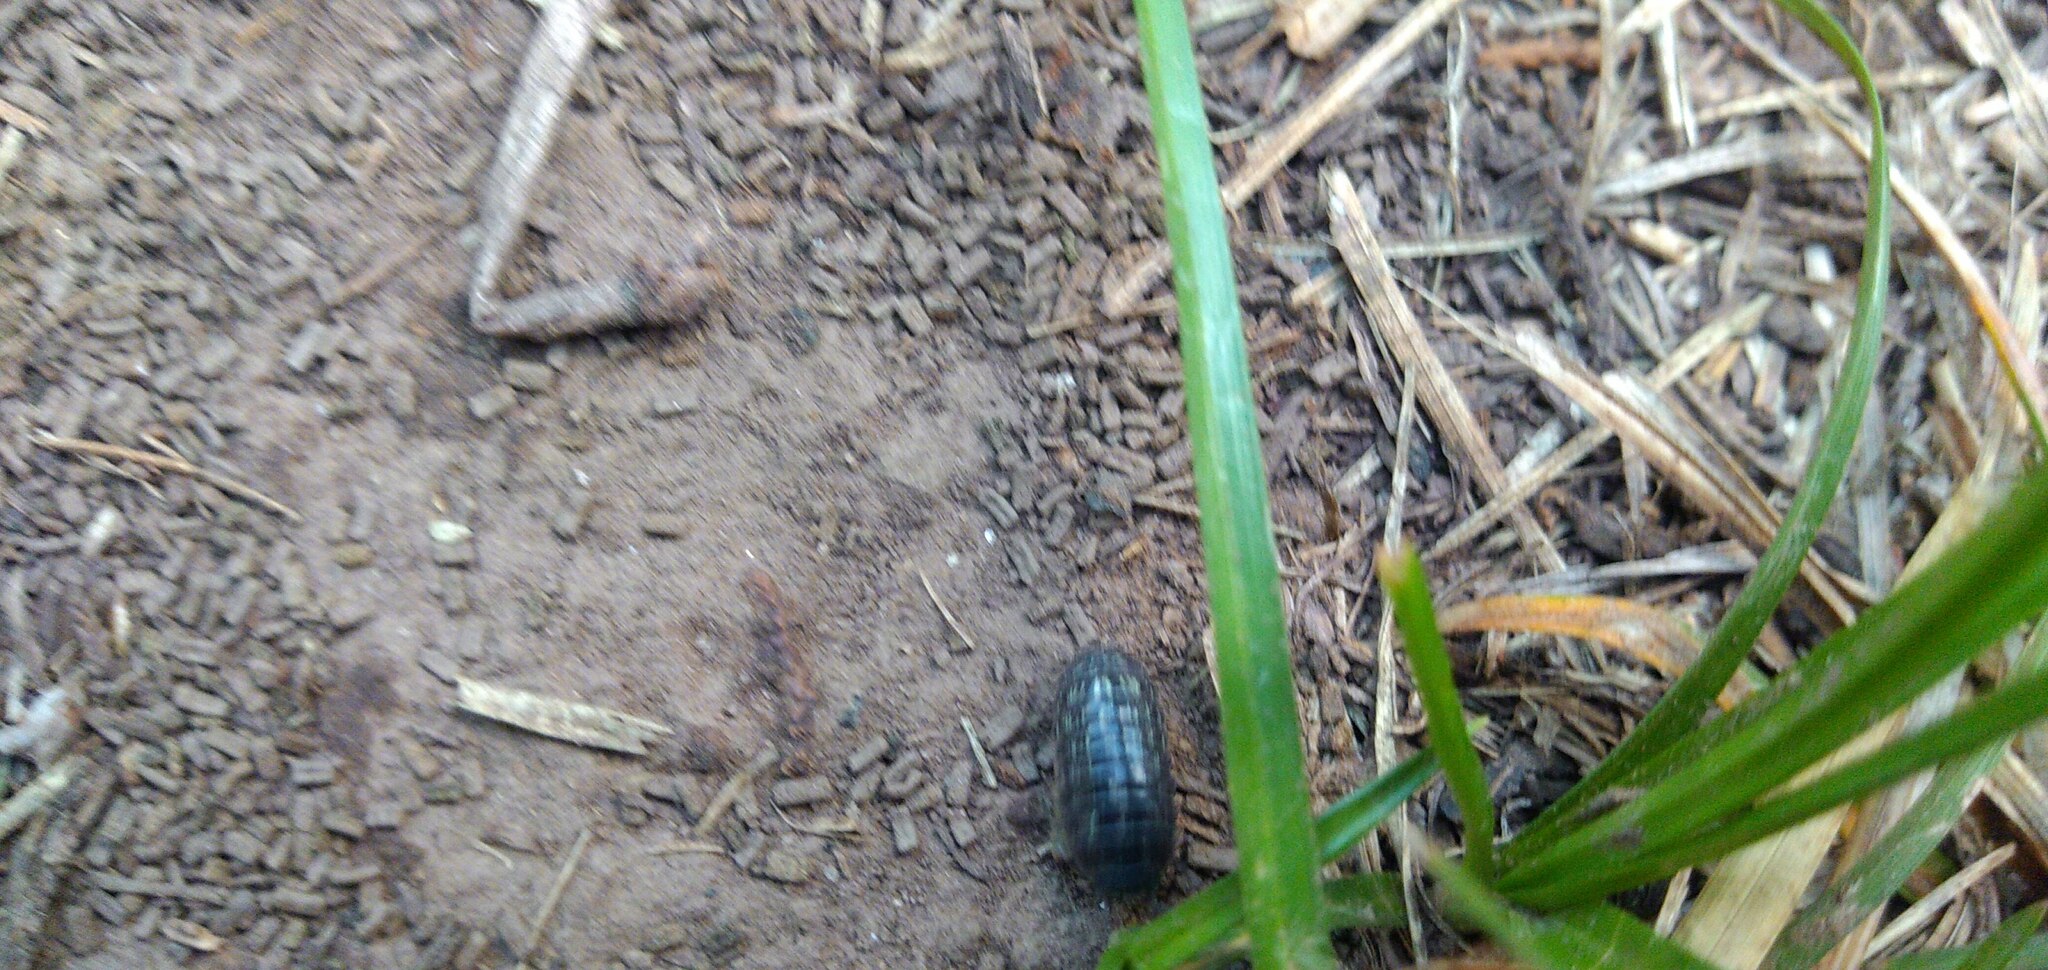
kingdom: Animalia
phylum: Arthropoda
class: Malacostraca
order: Isopoda
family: Armadillidiidae
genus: Armadillidium
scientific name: Armadillidium vulgare
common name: Common pill woodlouse
